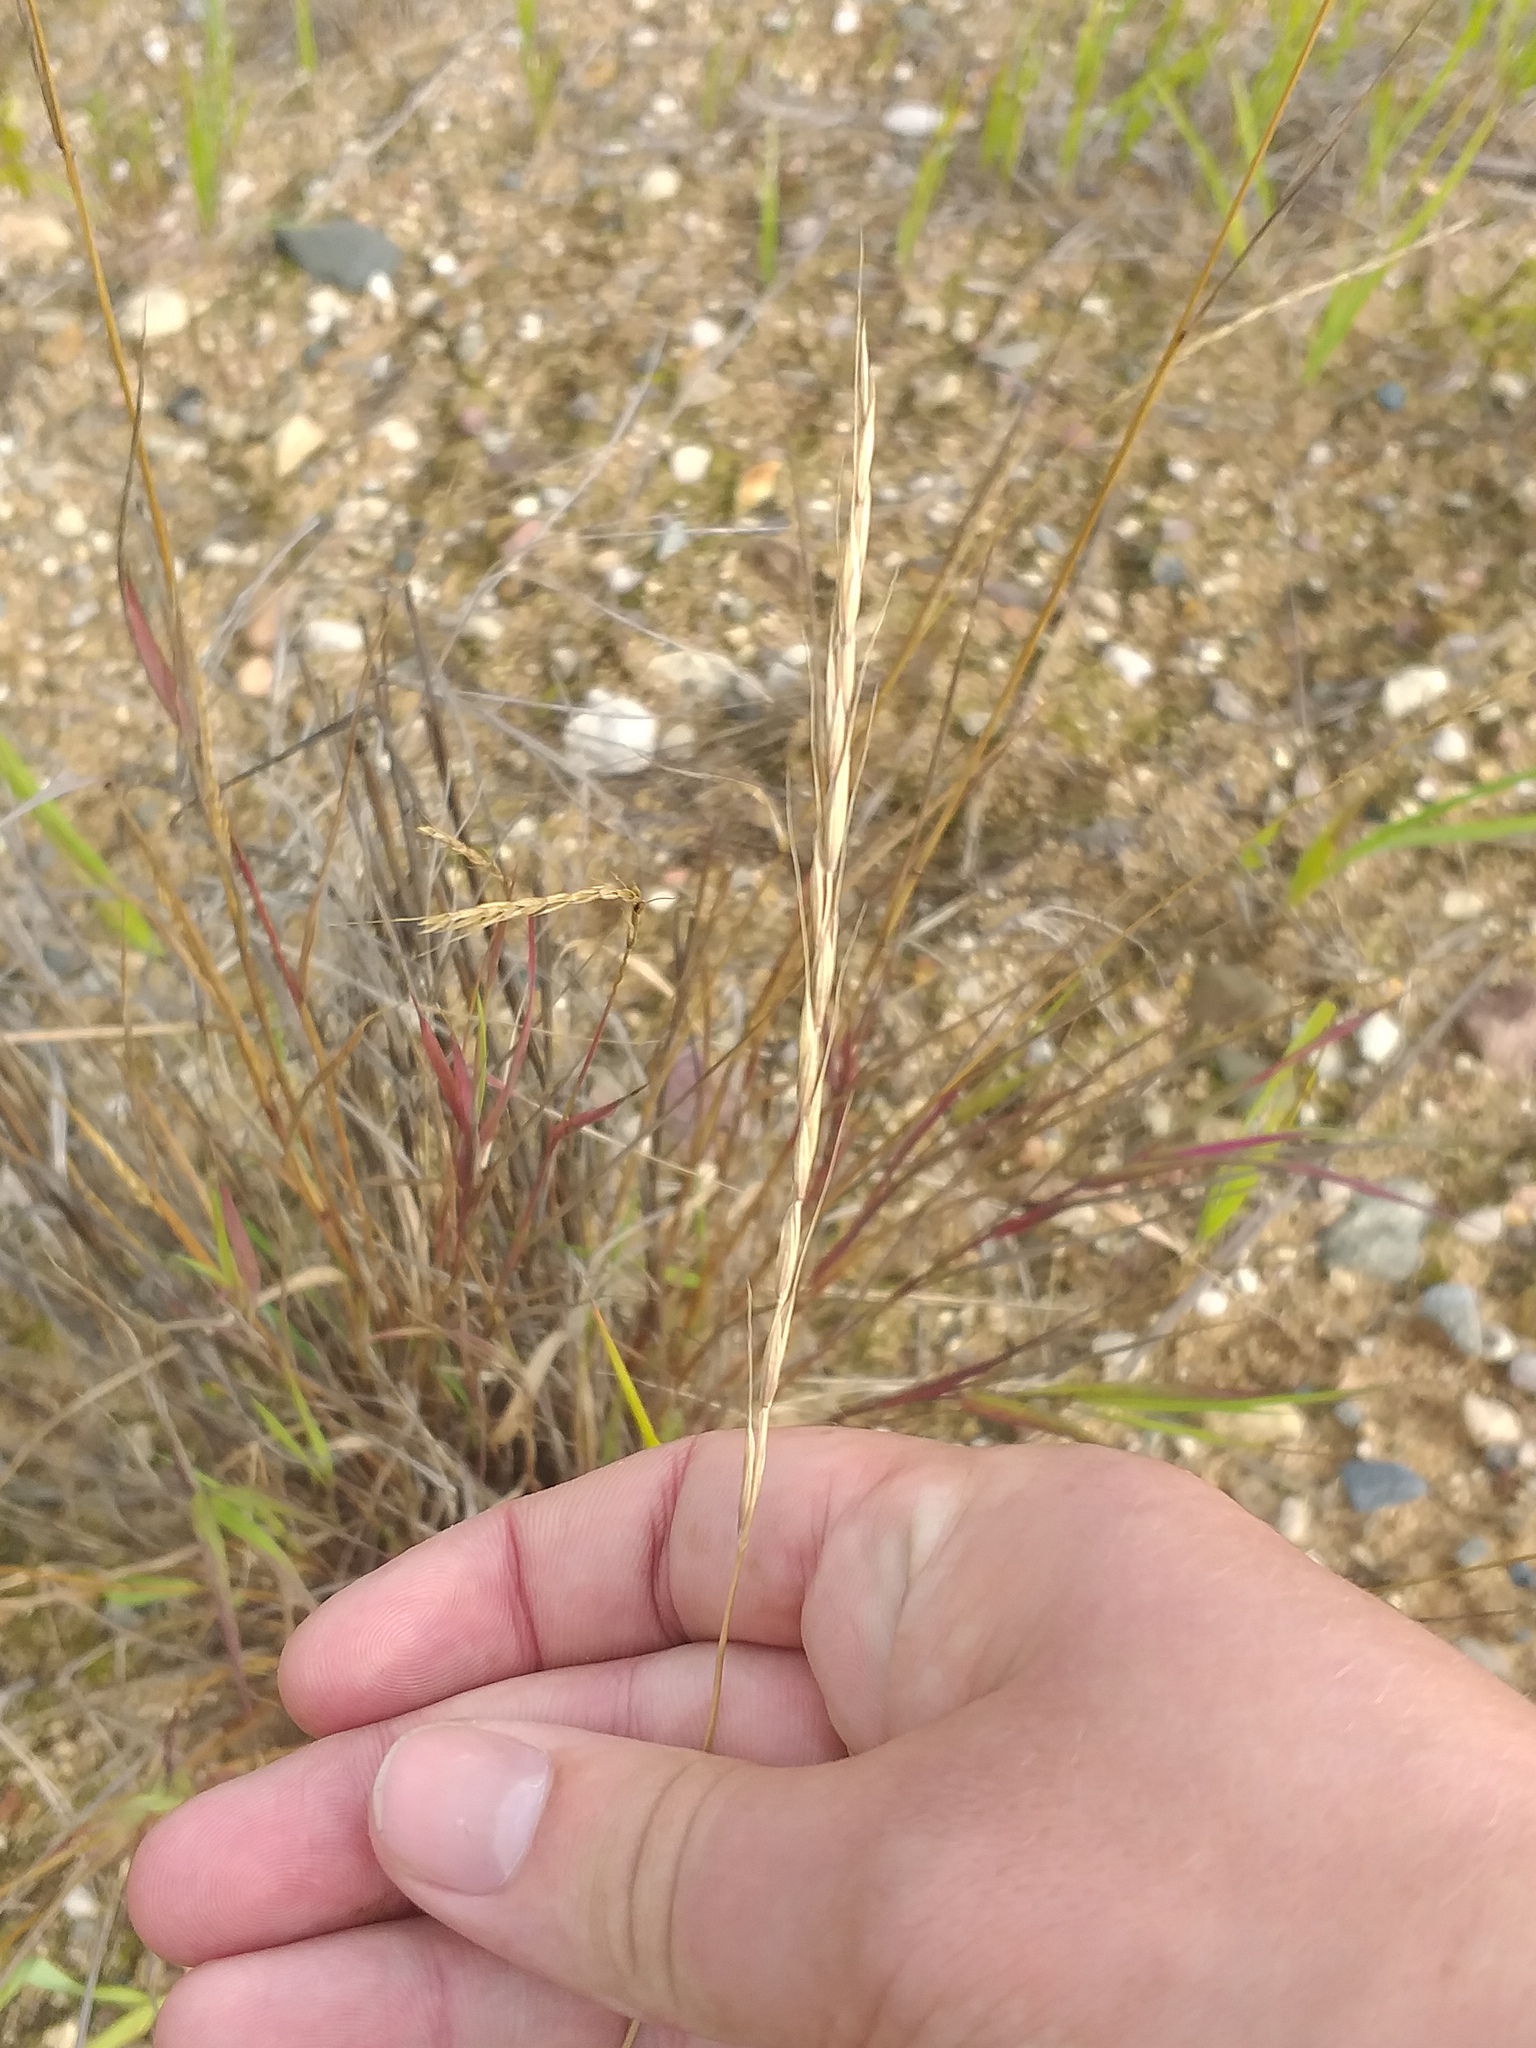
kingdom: Plantae
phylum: Tracheophyta
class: Liliopsida
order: Poales
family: Poaceae
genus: Elymus
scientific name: Elymus caninus
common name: Bearded couch
